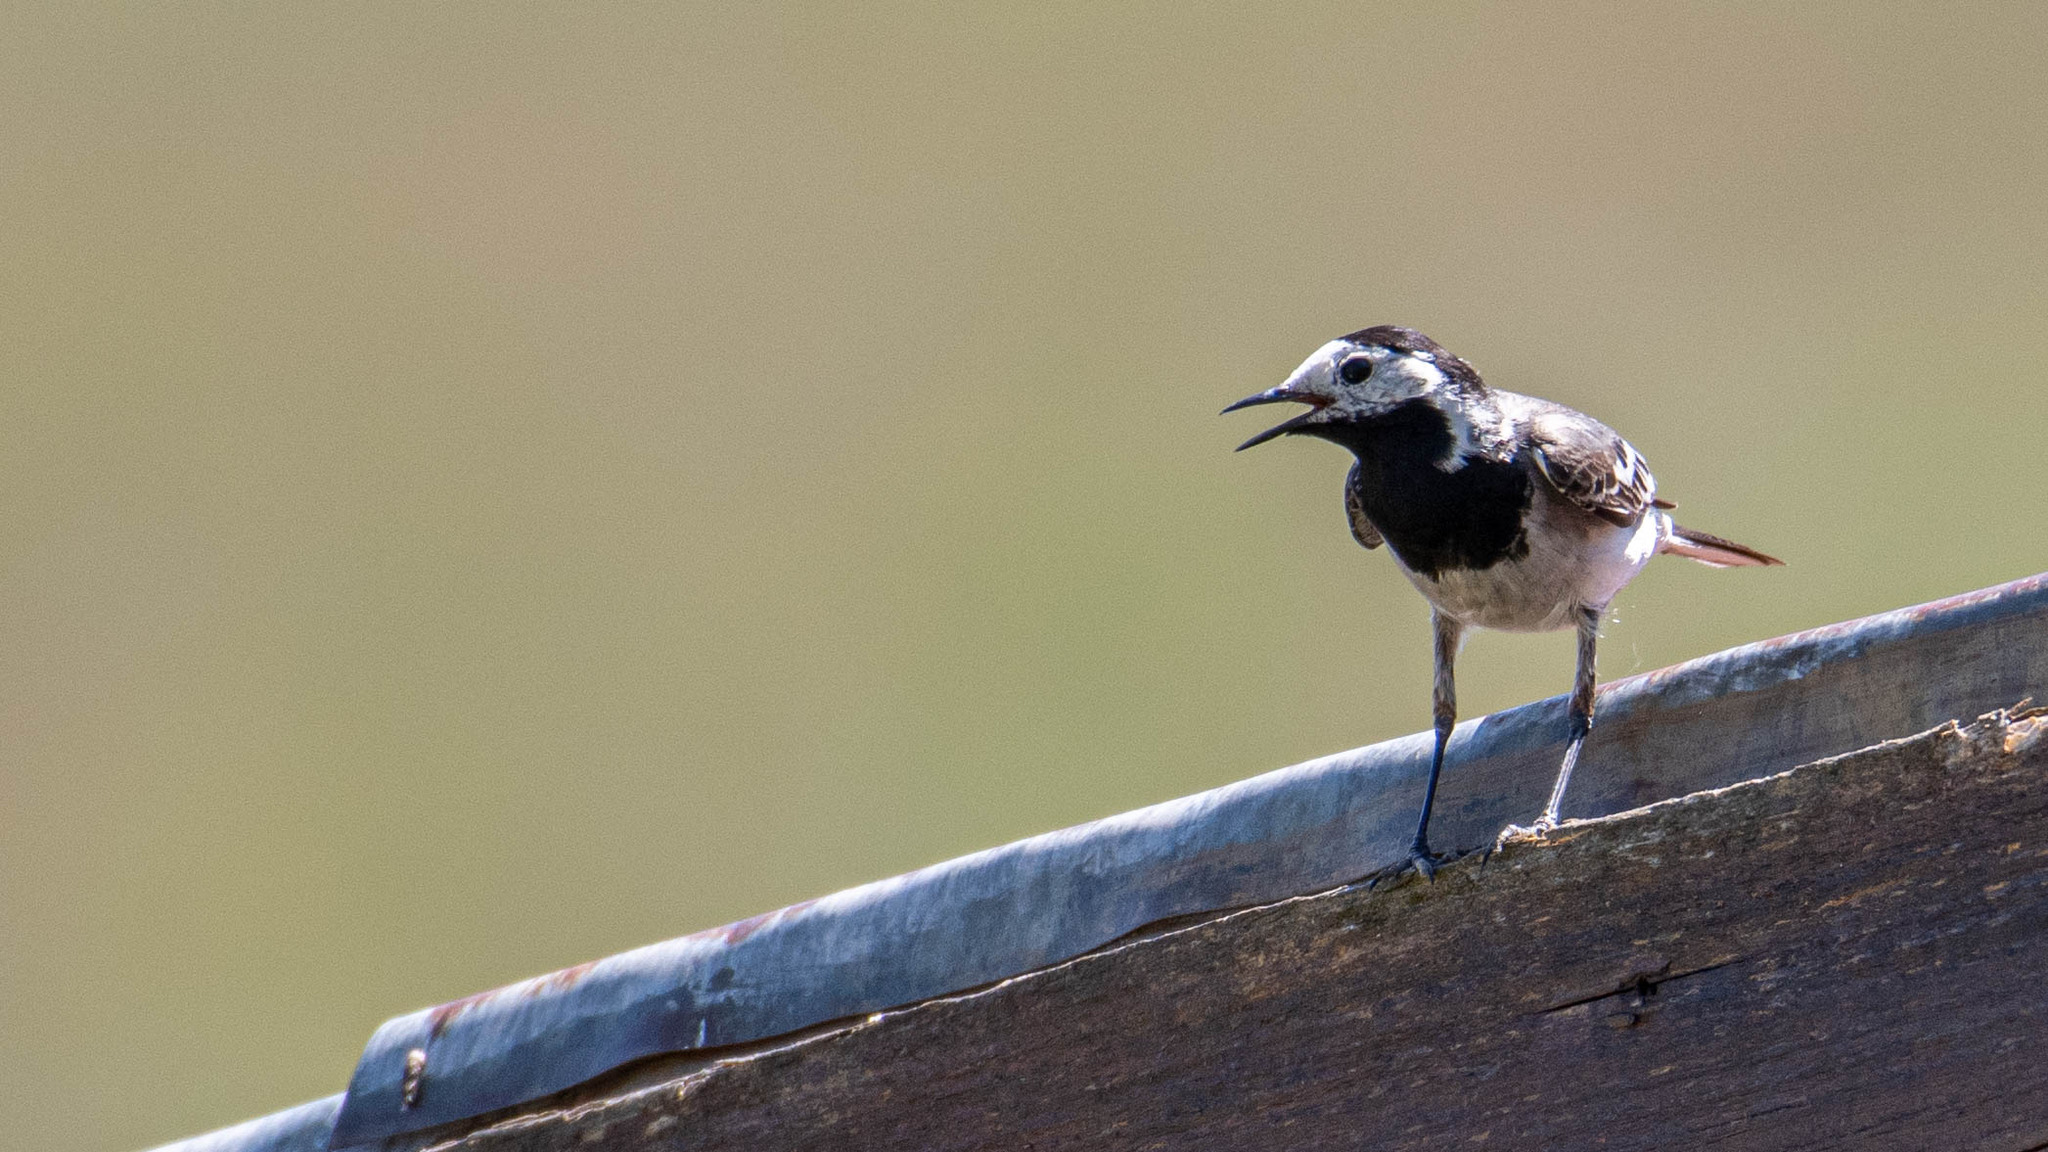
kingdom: Animalia
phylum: Chordata
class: Aves
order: Passeriformes
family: Motacillidae
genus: Motacilla
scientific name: Motacilla alba
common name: White wagtail
